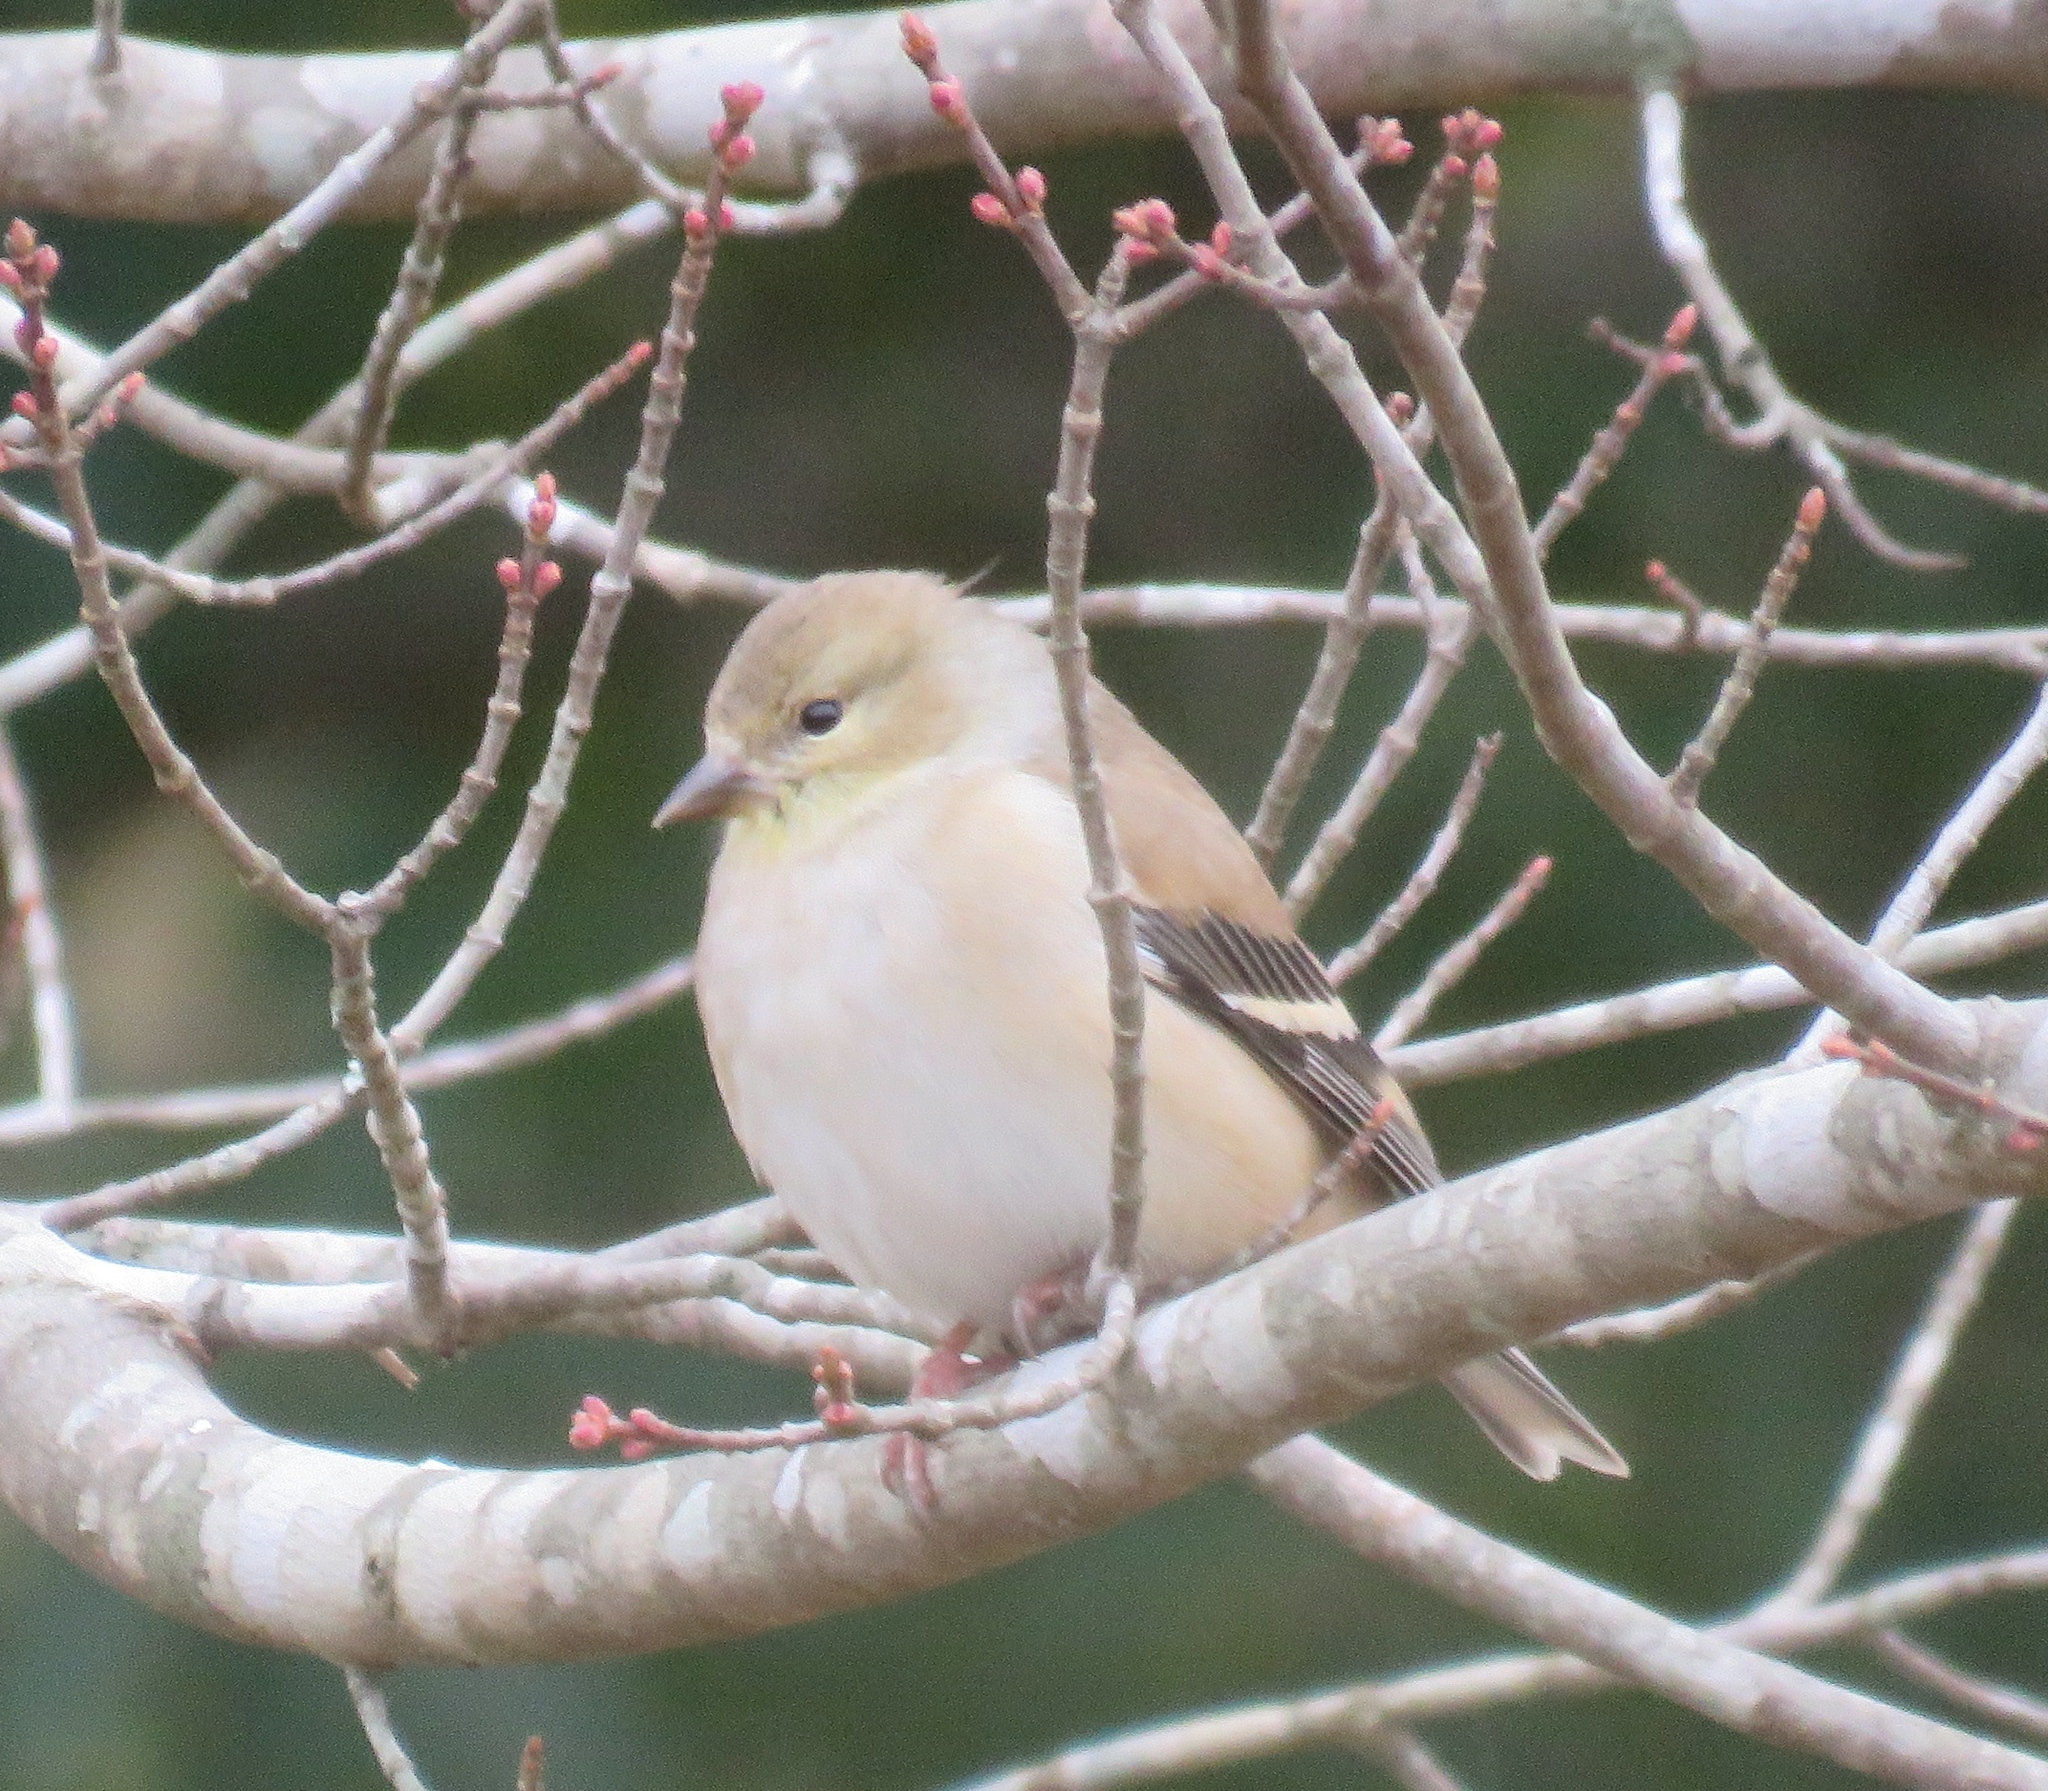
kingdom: Animalia
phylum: Chordata
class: Aves
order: Passeriformes
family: Fringillidae
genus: Spinus
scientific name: Spinus tristis
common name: American goldfinch
